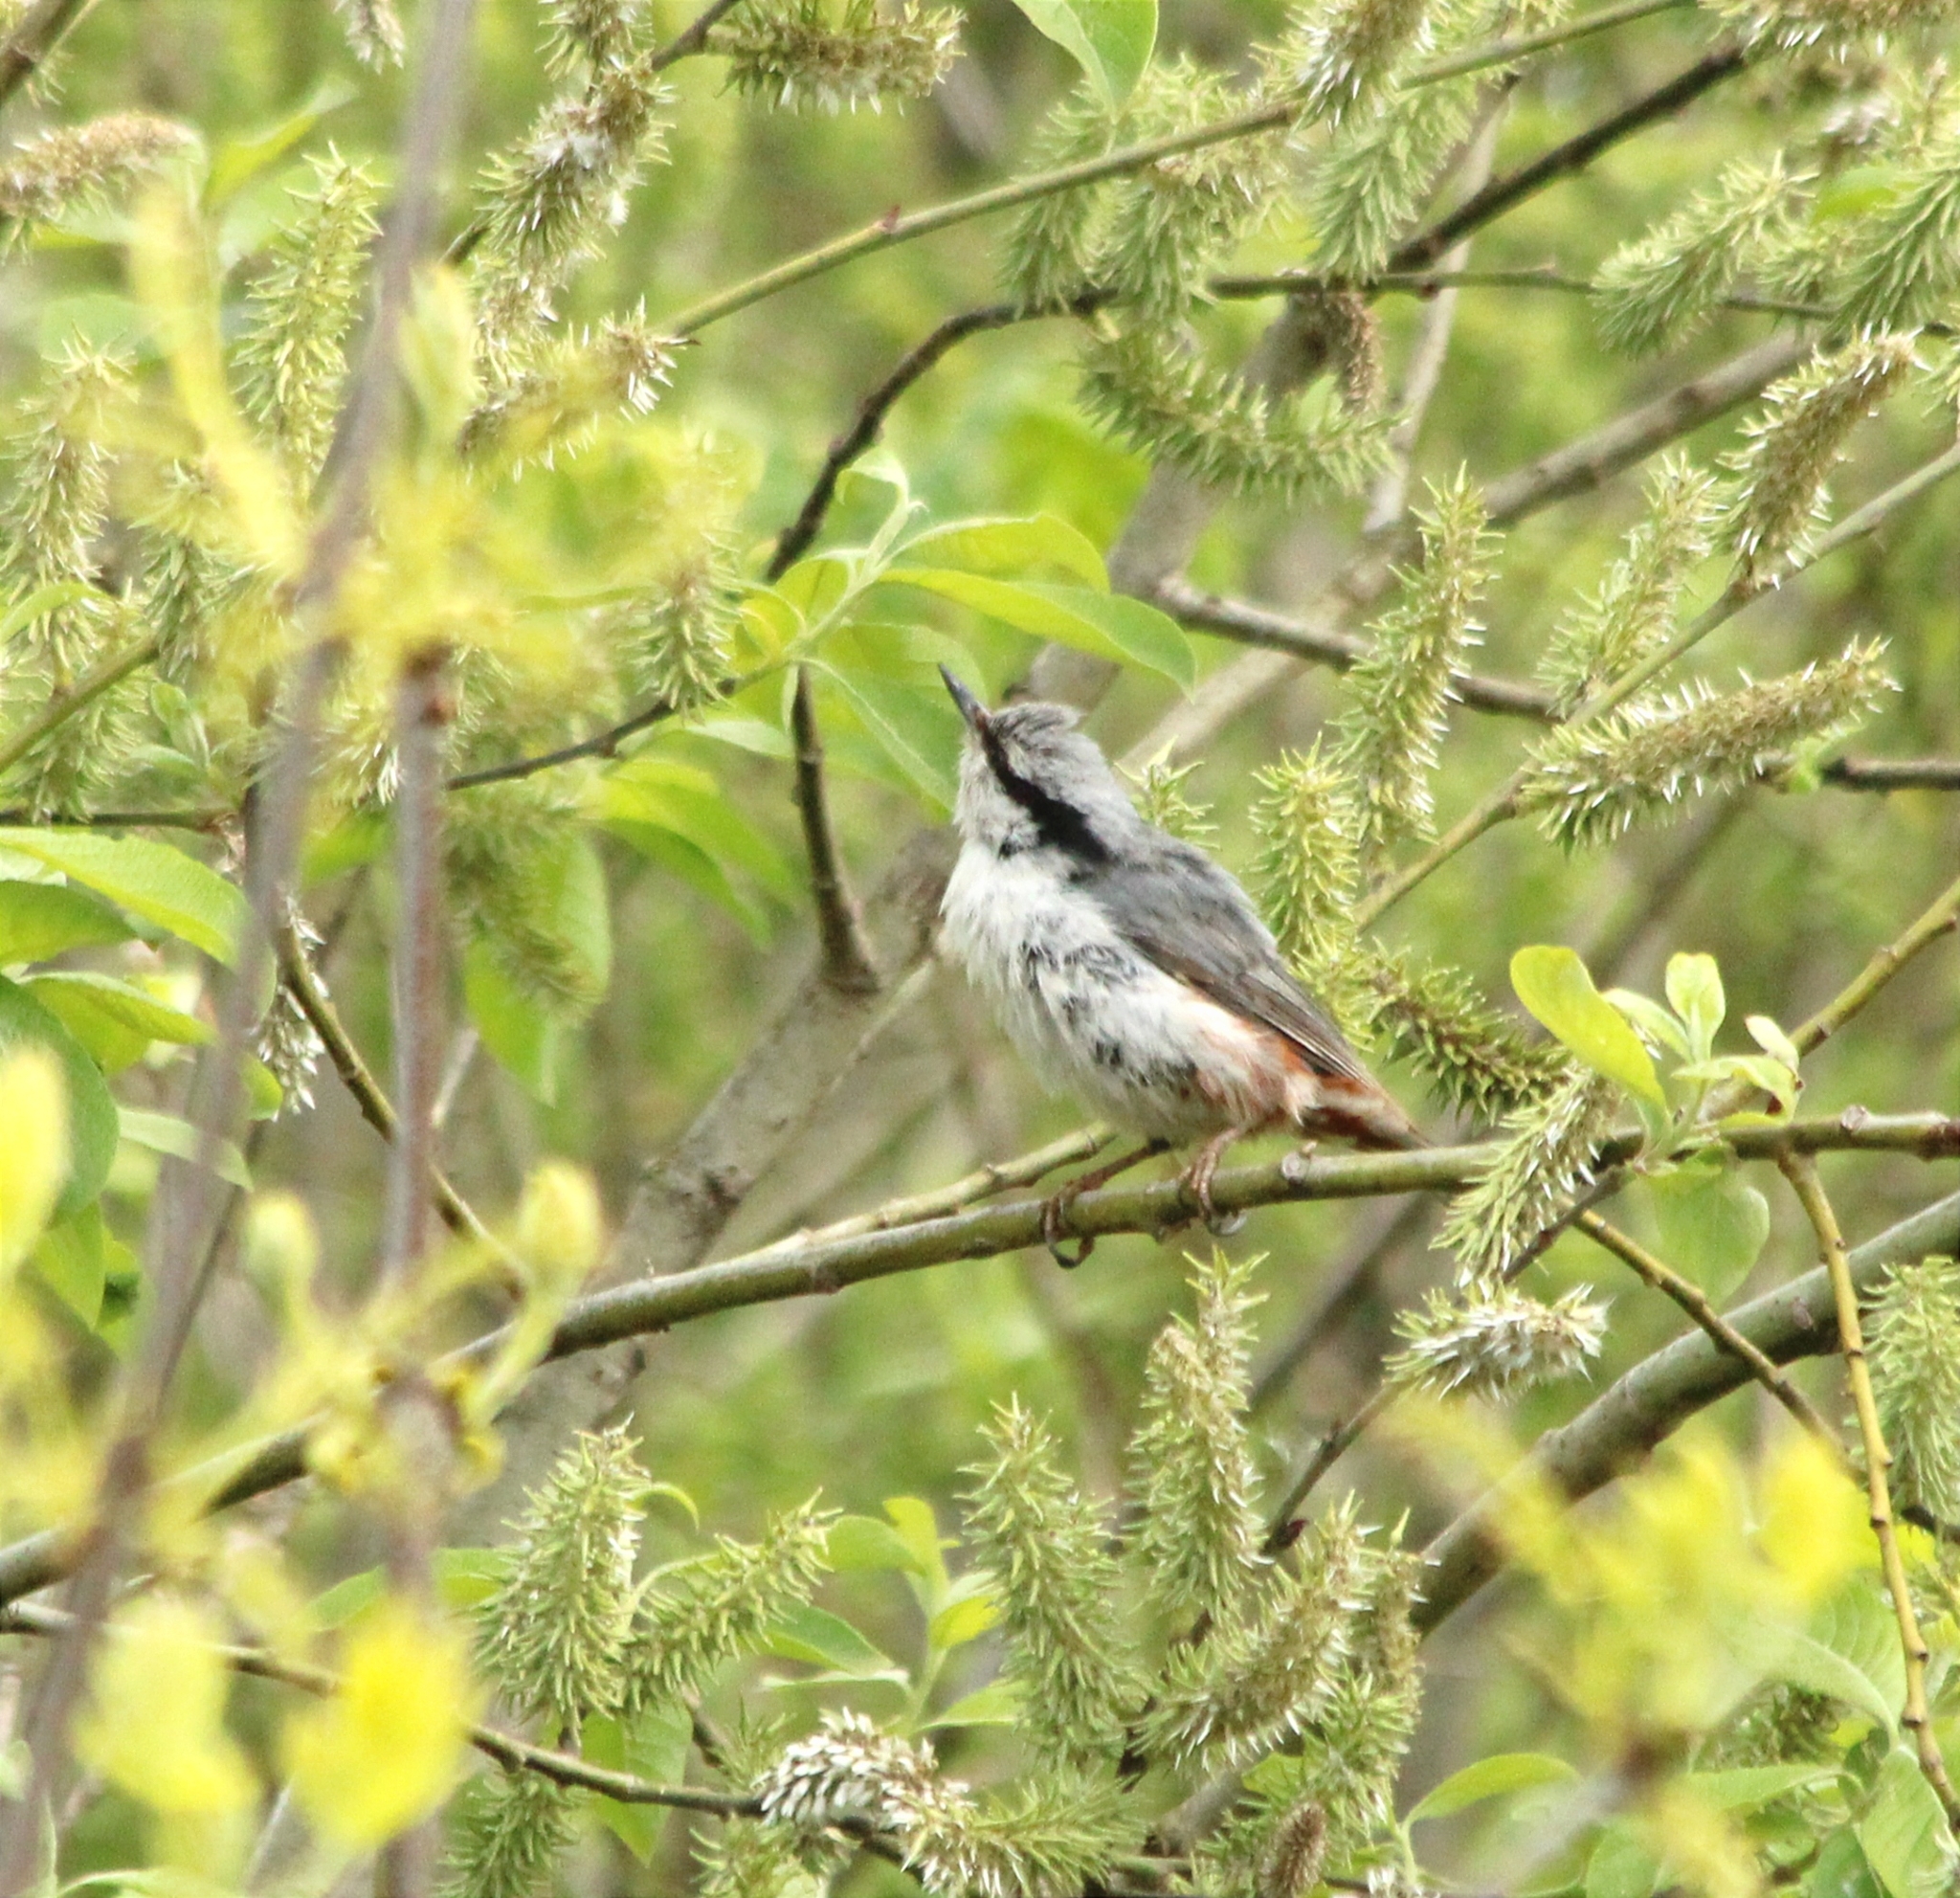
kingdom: Animalia
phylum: Chordata
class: Aves
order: Passeriformes
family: Sittidae
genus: Sitta
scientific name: Sitta europaea
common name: Eurasian nuthatch
